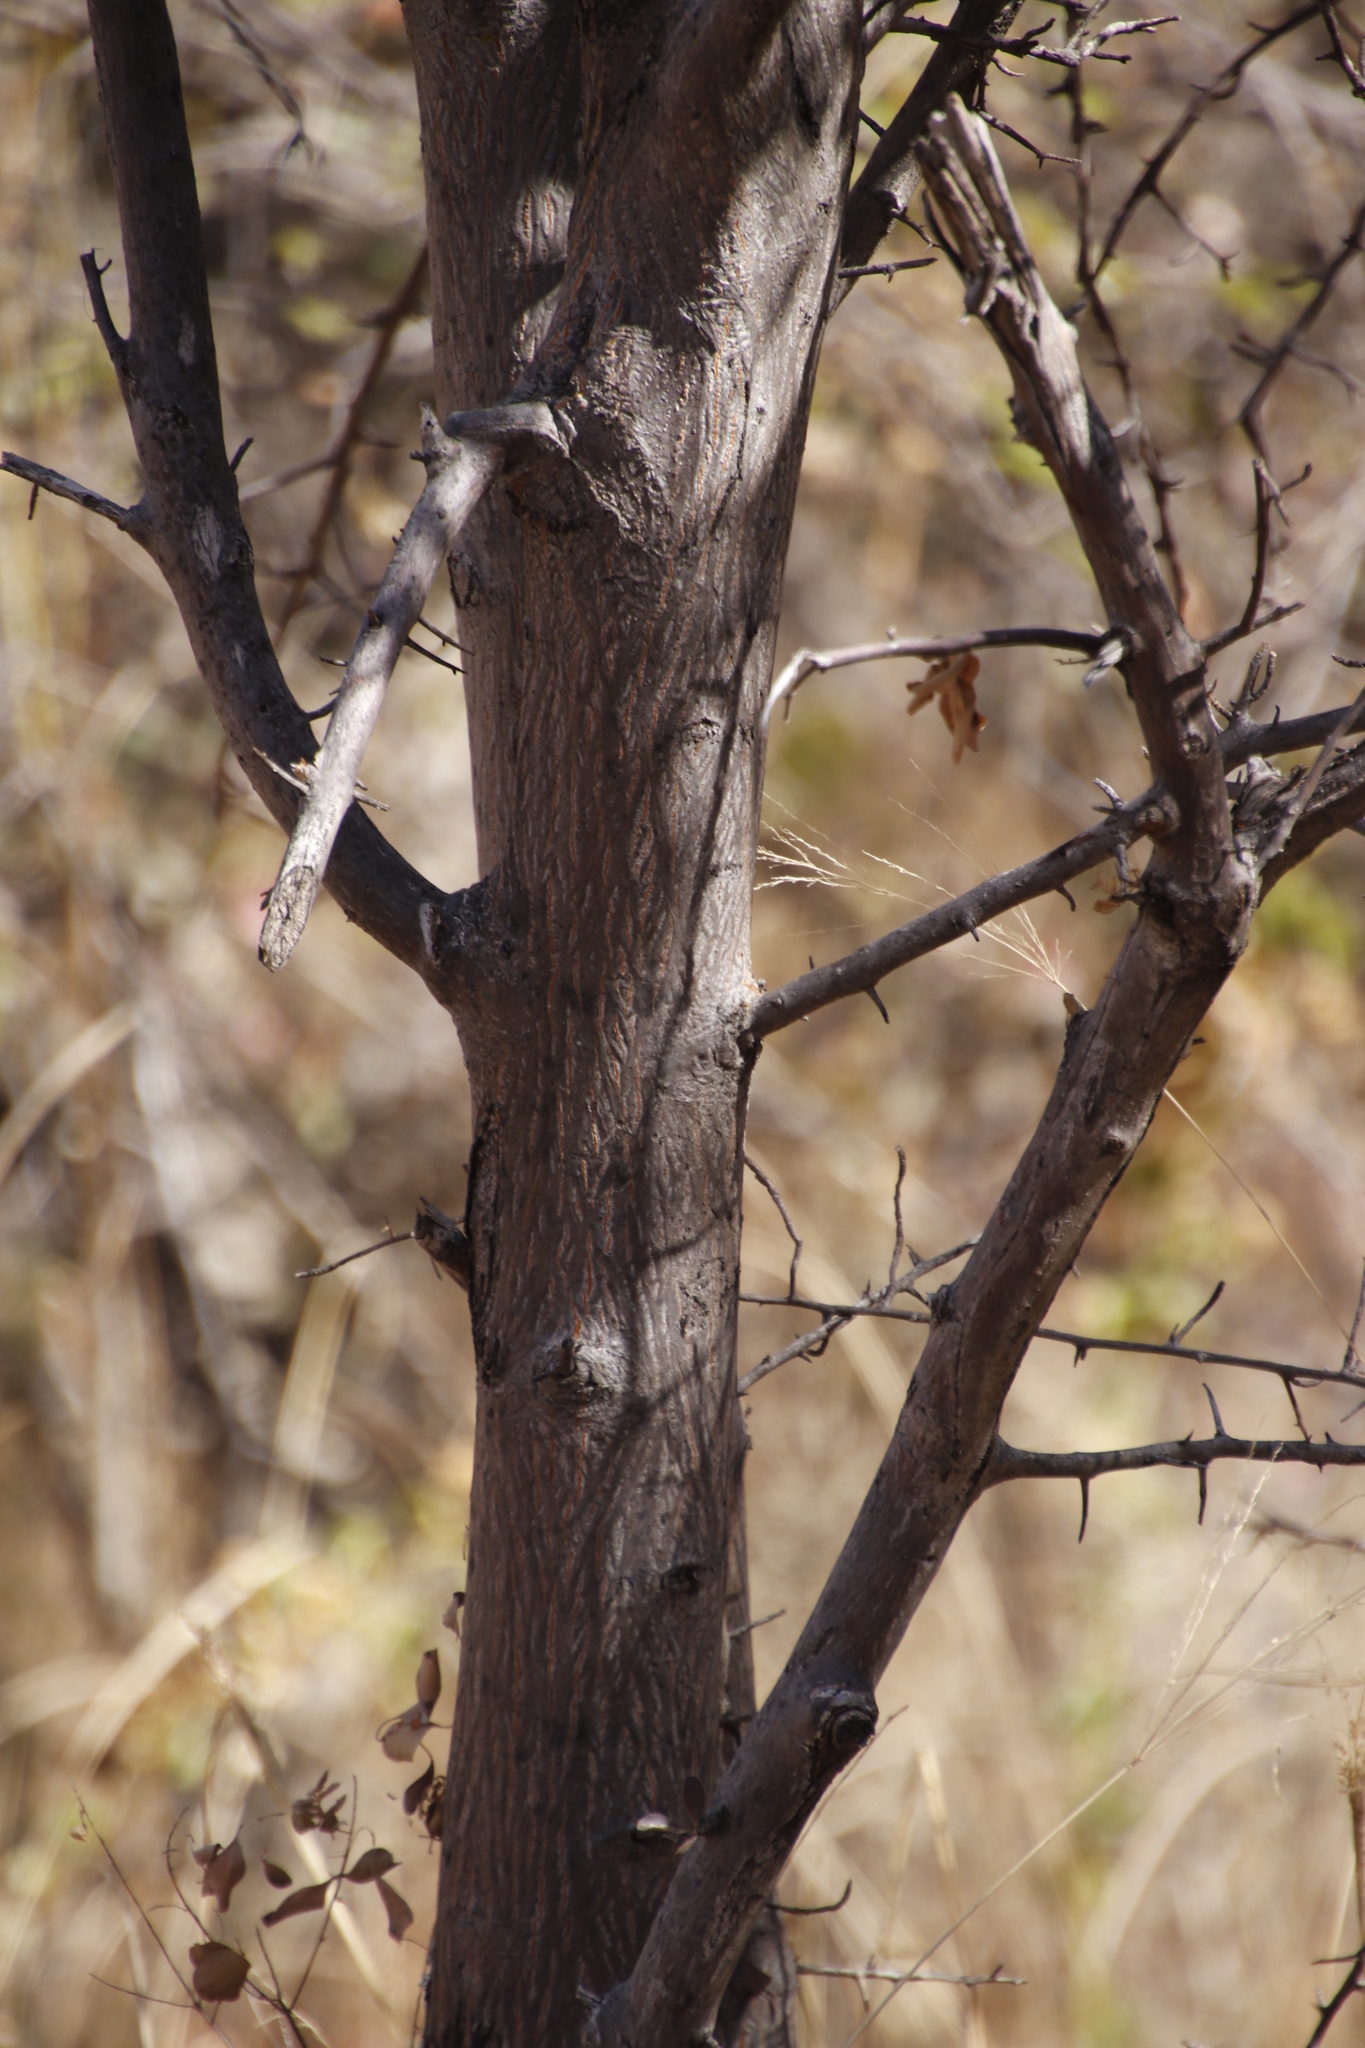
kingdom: Plantae
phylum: Tracheophyta
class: Magnoliopsida
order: Myrtales
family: Combretaceae
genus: Terminalia
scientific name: Terminalia prunioides
